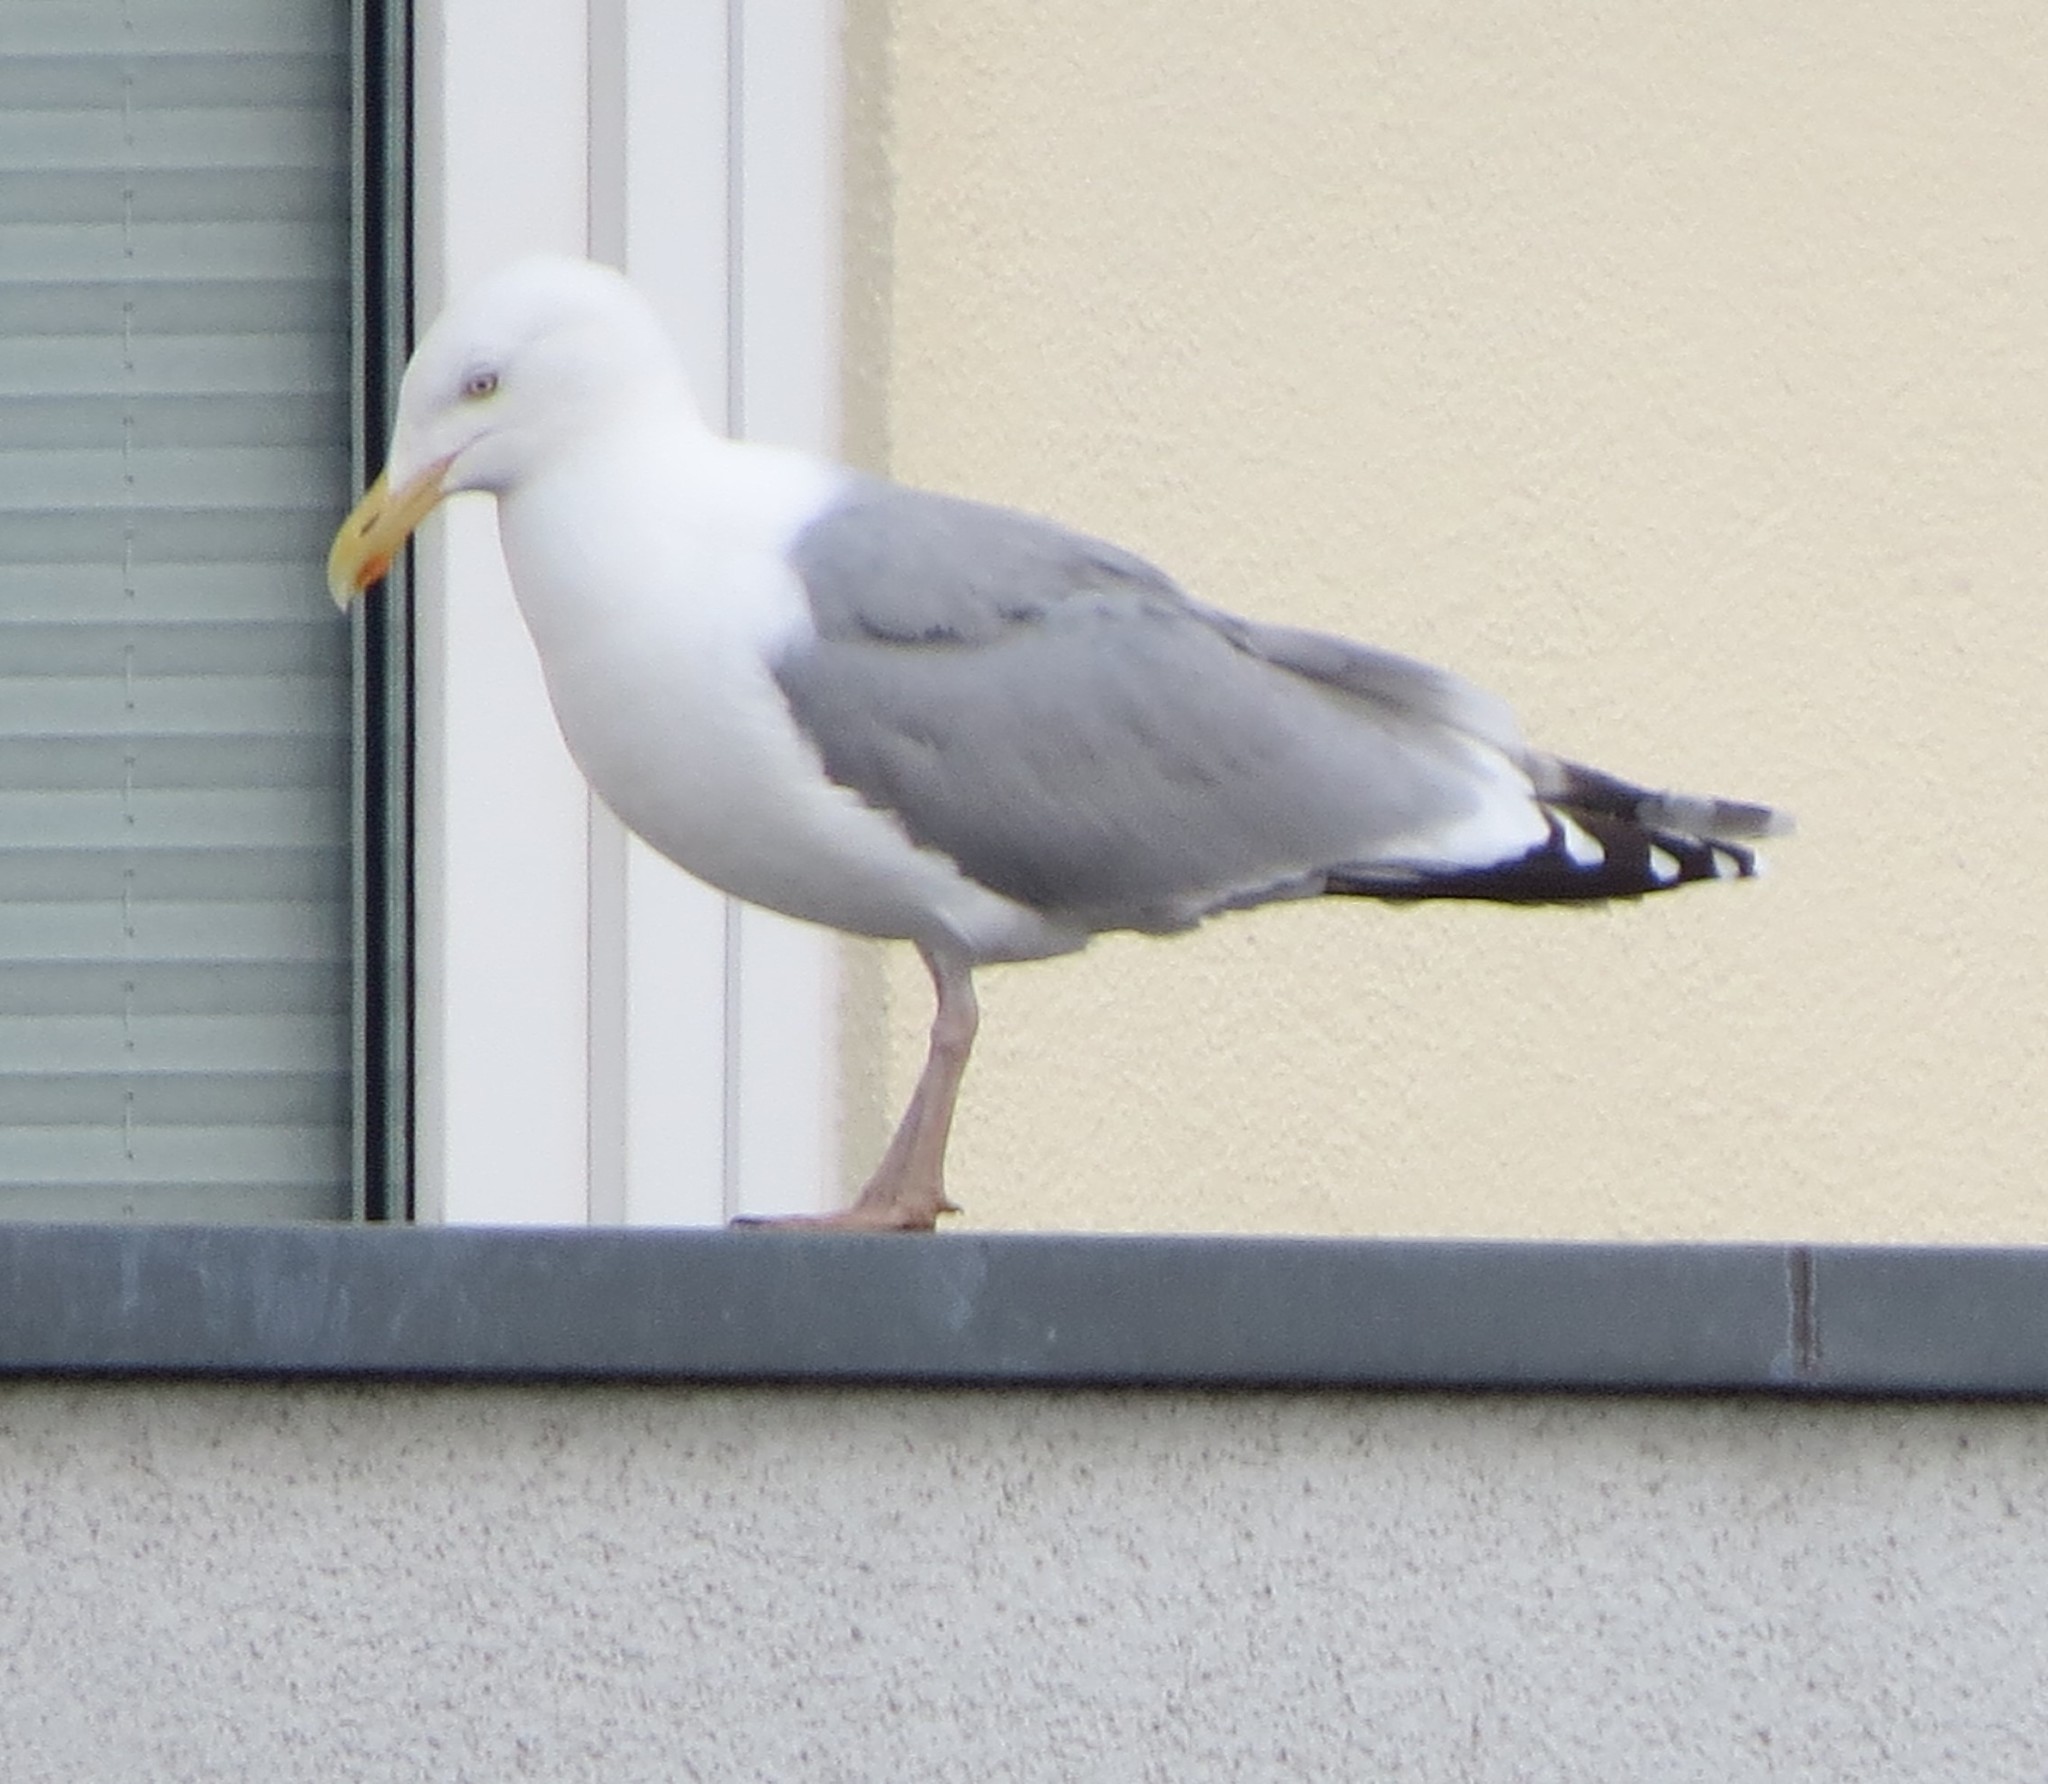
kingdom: Animalia
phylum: Chordata
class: Aves
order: Charadriiformes
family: Laridae
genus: Larus
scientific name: Larus argentatus
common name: Herring gull
